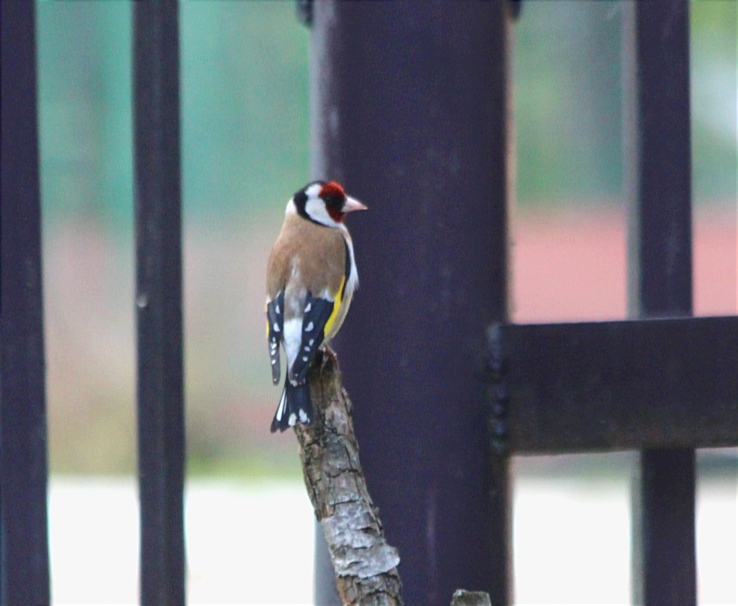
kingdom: Animalia
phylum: Chordata
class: Aves
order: Passeriformes
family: Fringillidae
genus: Carduelis
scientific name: Carduelis carduelis
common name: European goldfinch
